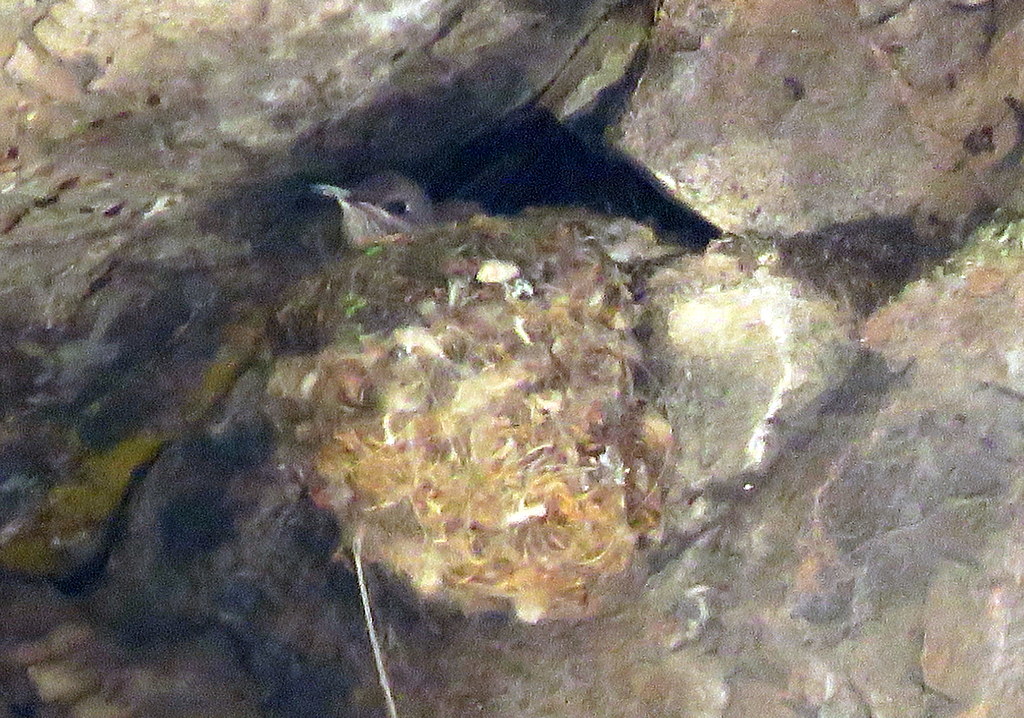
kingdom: Animalia
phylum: Chordata
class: Aves
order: Apodiformes
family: Trochilidae
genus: Oreotrochilus
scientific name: Oreotrochilus leucopleurus
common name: White-sided hillstar
